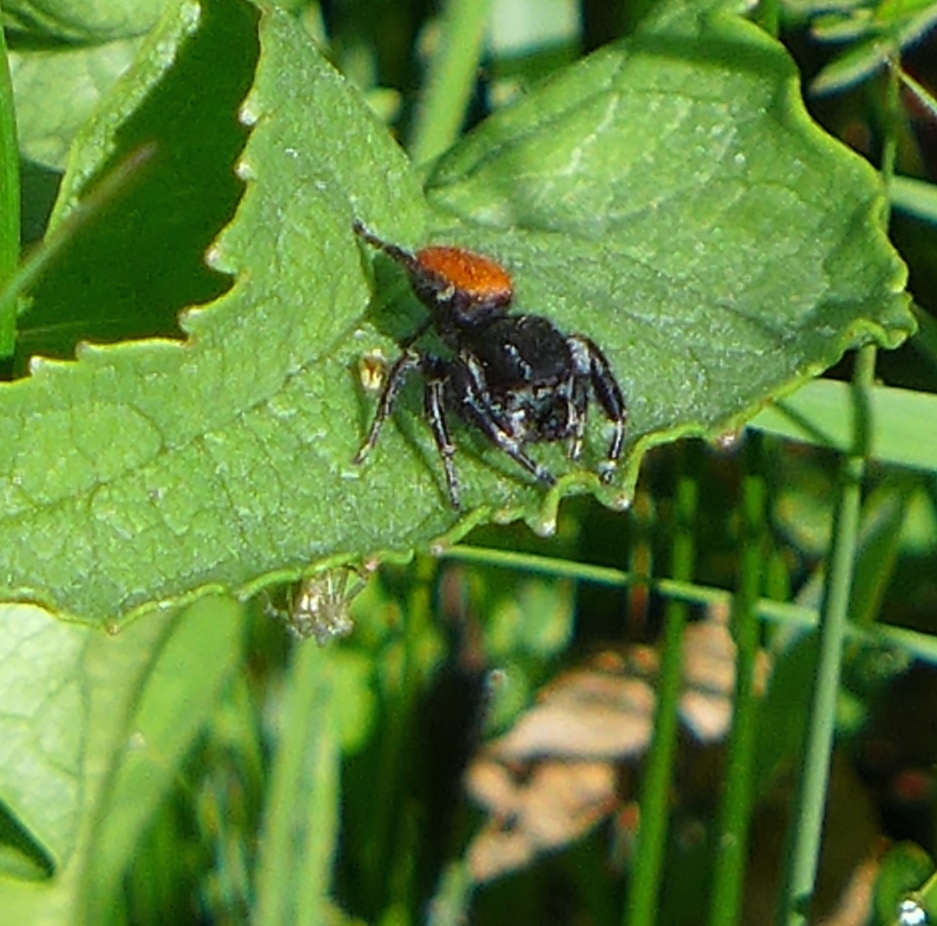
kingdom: Animalia
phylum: Arthropoda
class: Arachnida
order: Araneae
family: Salticidae
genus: Phidippus
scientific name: Phidippus johnsoni
